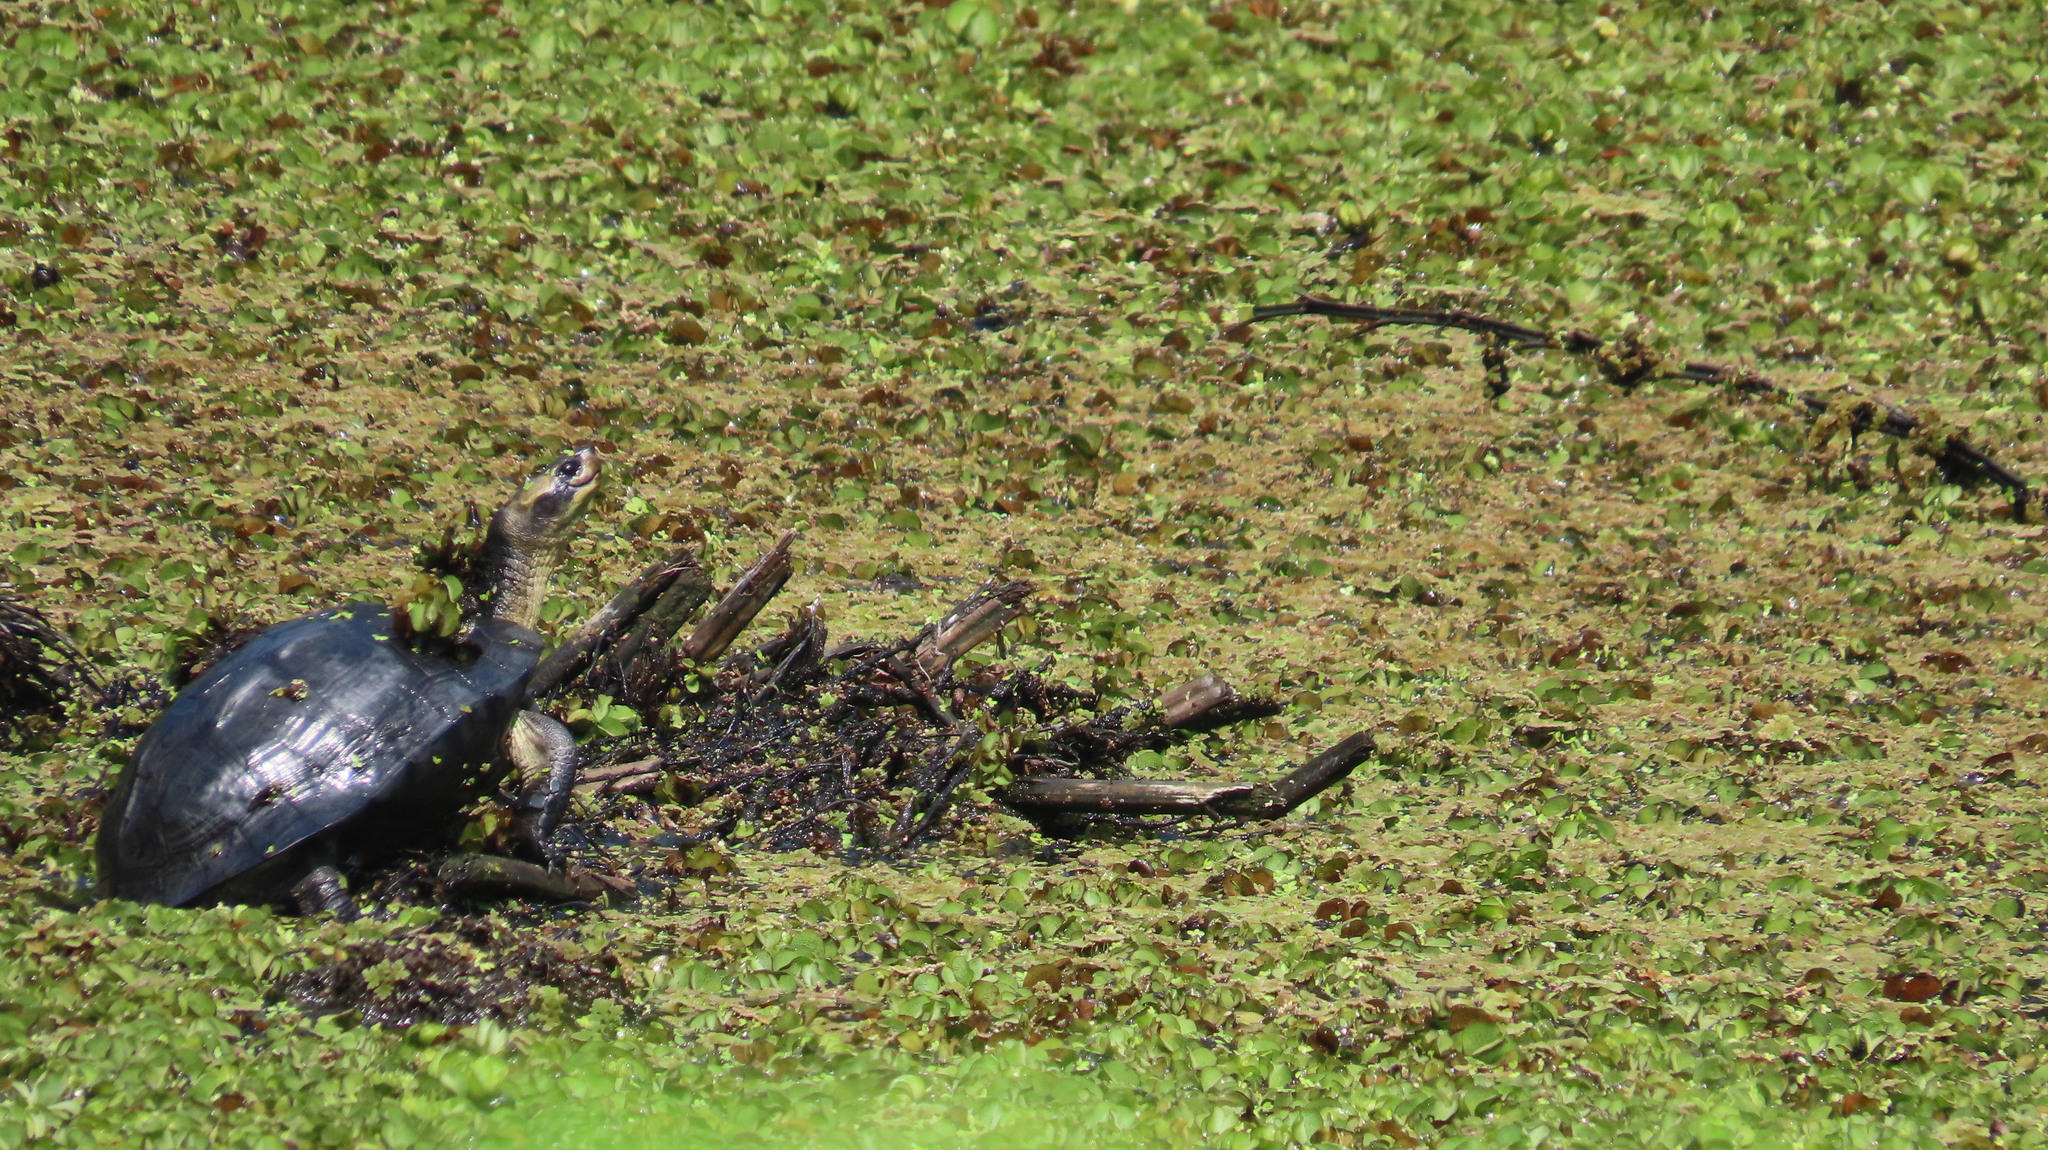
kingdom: Animalia
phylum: Chordata
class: Testudines
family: Geoemydidae
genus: Melanochelys
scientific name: Melanochelys trijuga
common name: Indian black turtle
